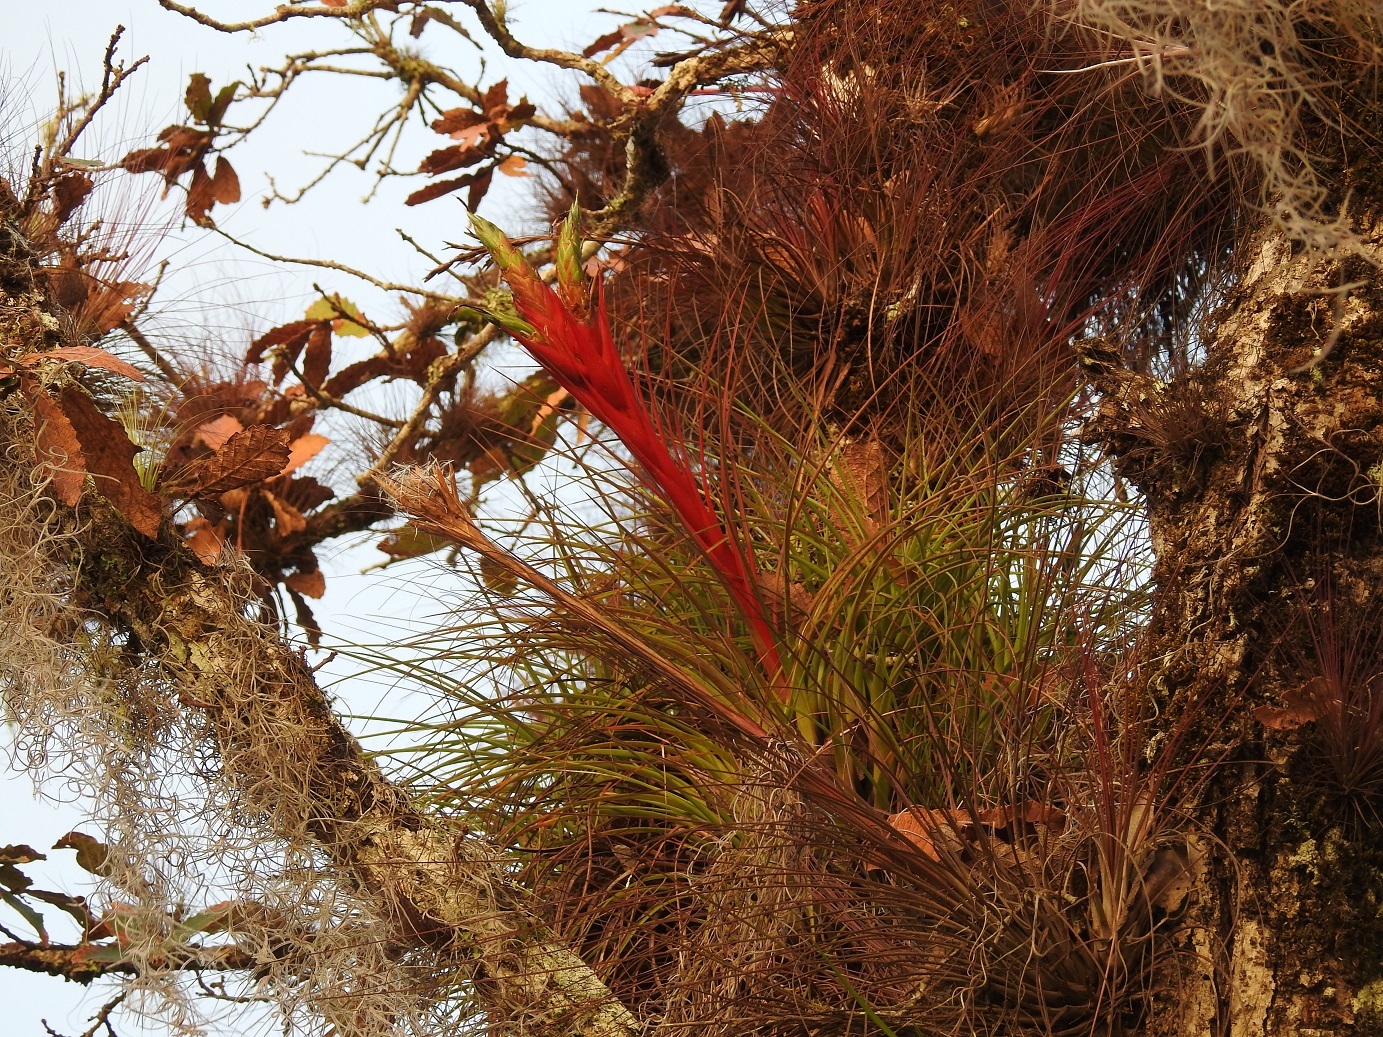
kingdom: Plantae
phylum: Tracheophyta
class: Liliopsida
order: Poales
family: Bromeliaceae
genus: Tillandsia
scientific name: Tillandsia punctulata
